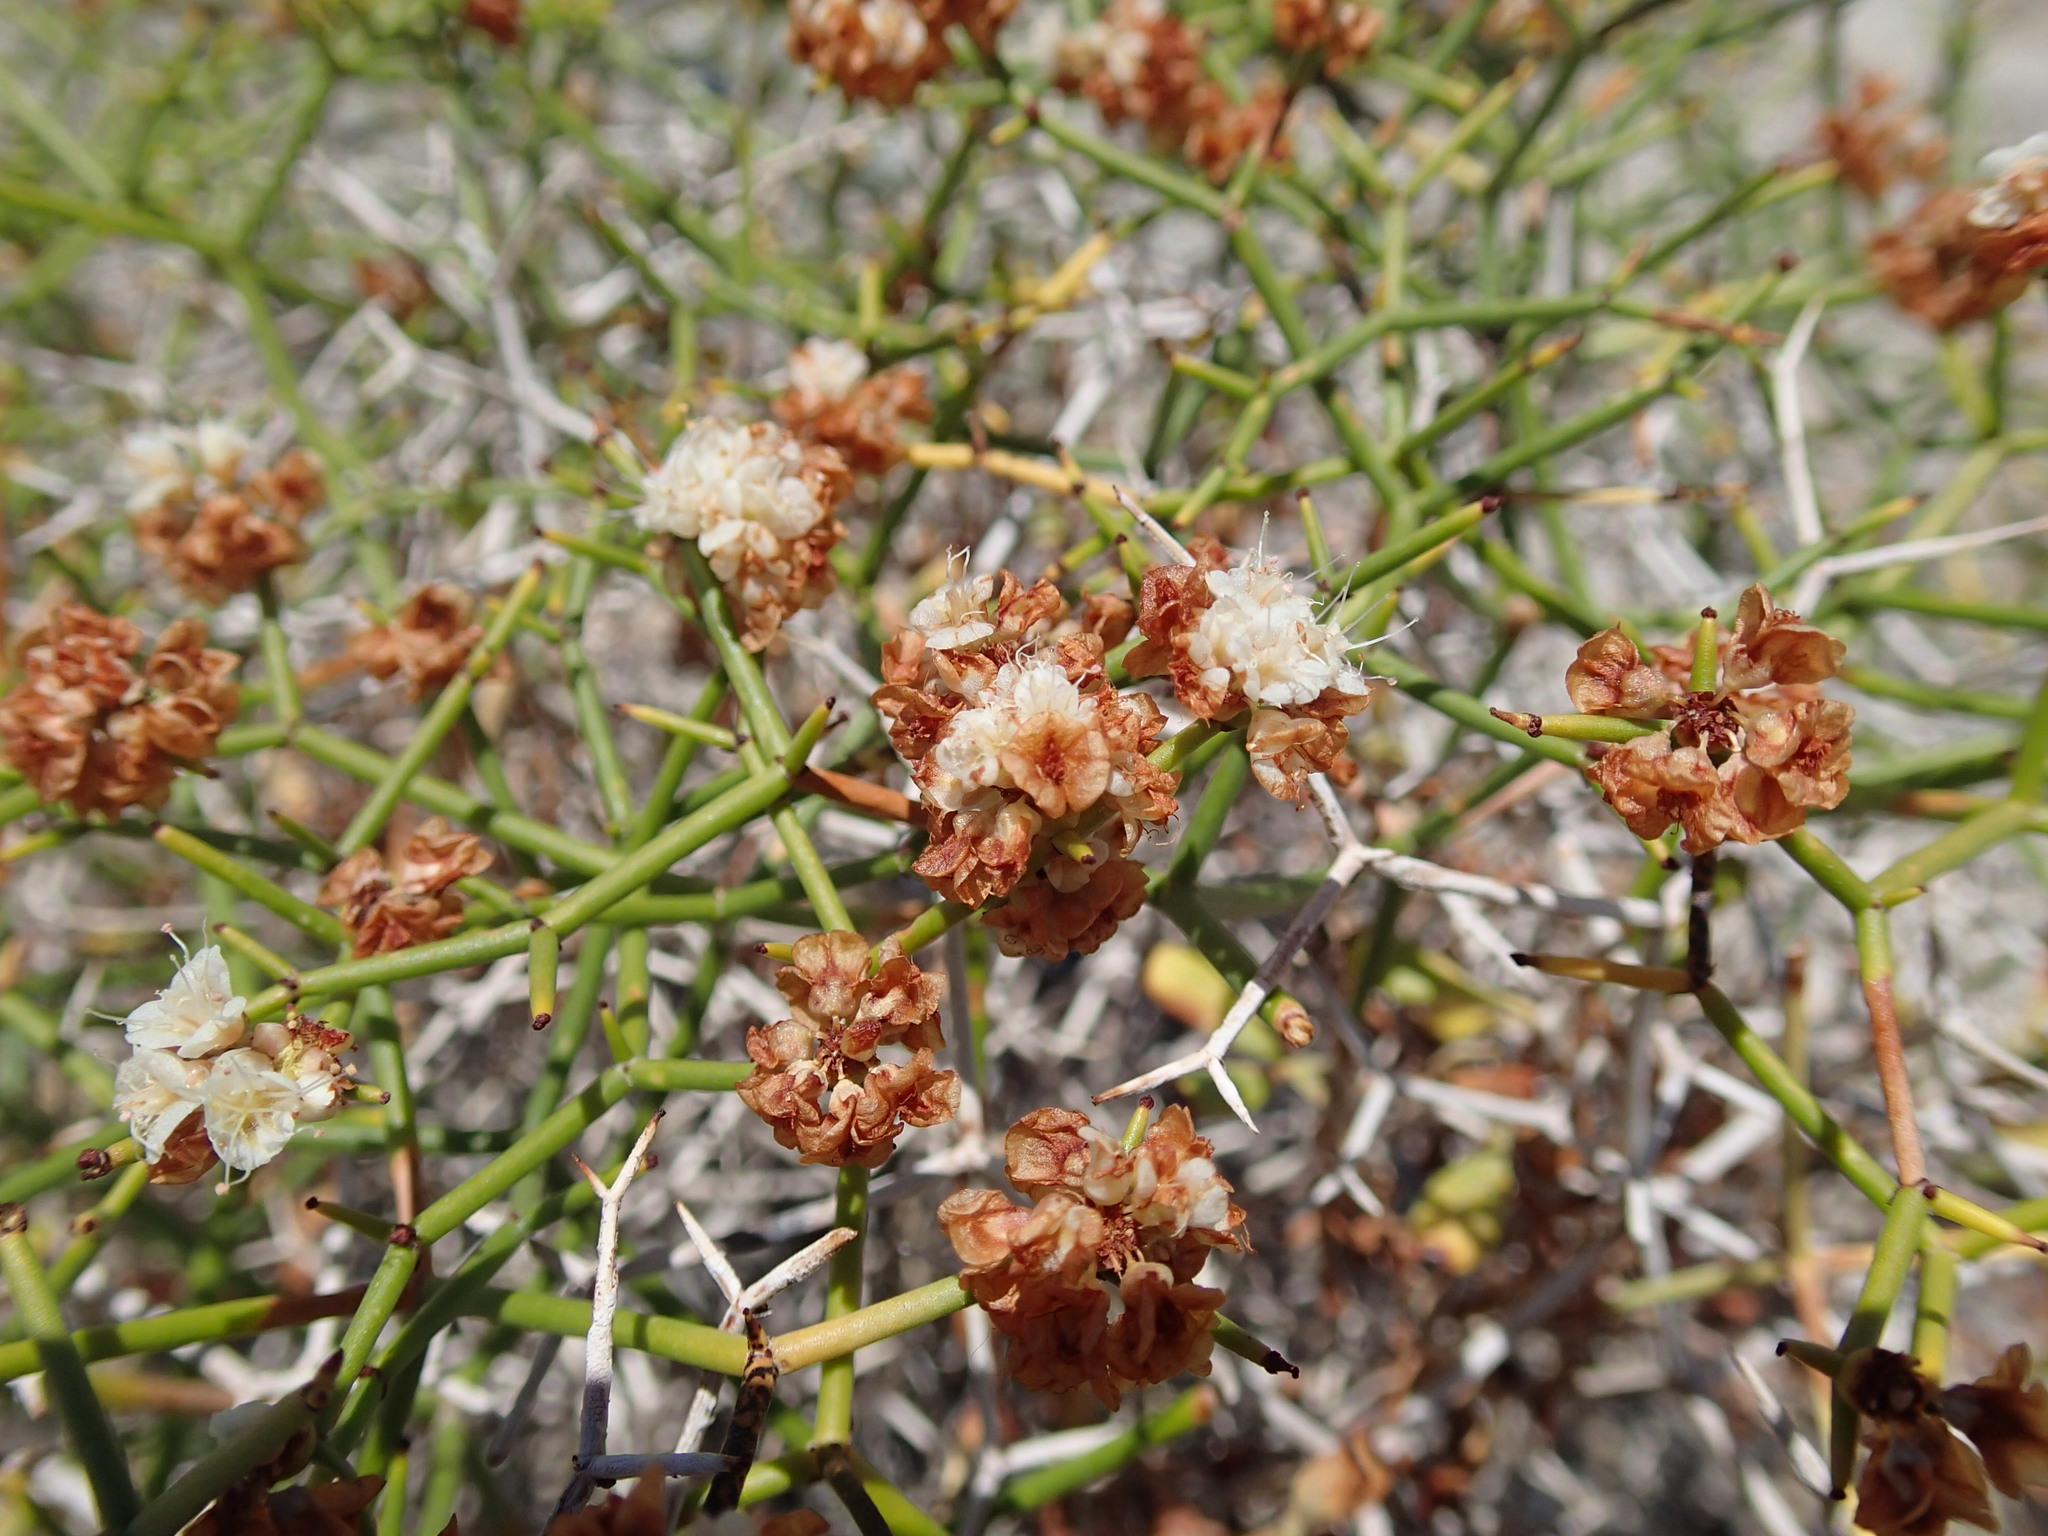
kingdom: Plantae
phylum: Tracheophyta
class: Magnoliopsida
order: Caryophyllales
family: Polygonaceae
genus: Eriogonum
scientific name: Eriogonum heermannii
